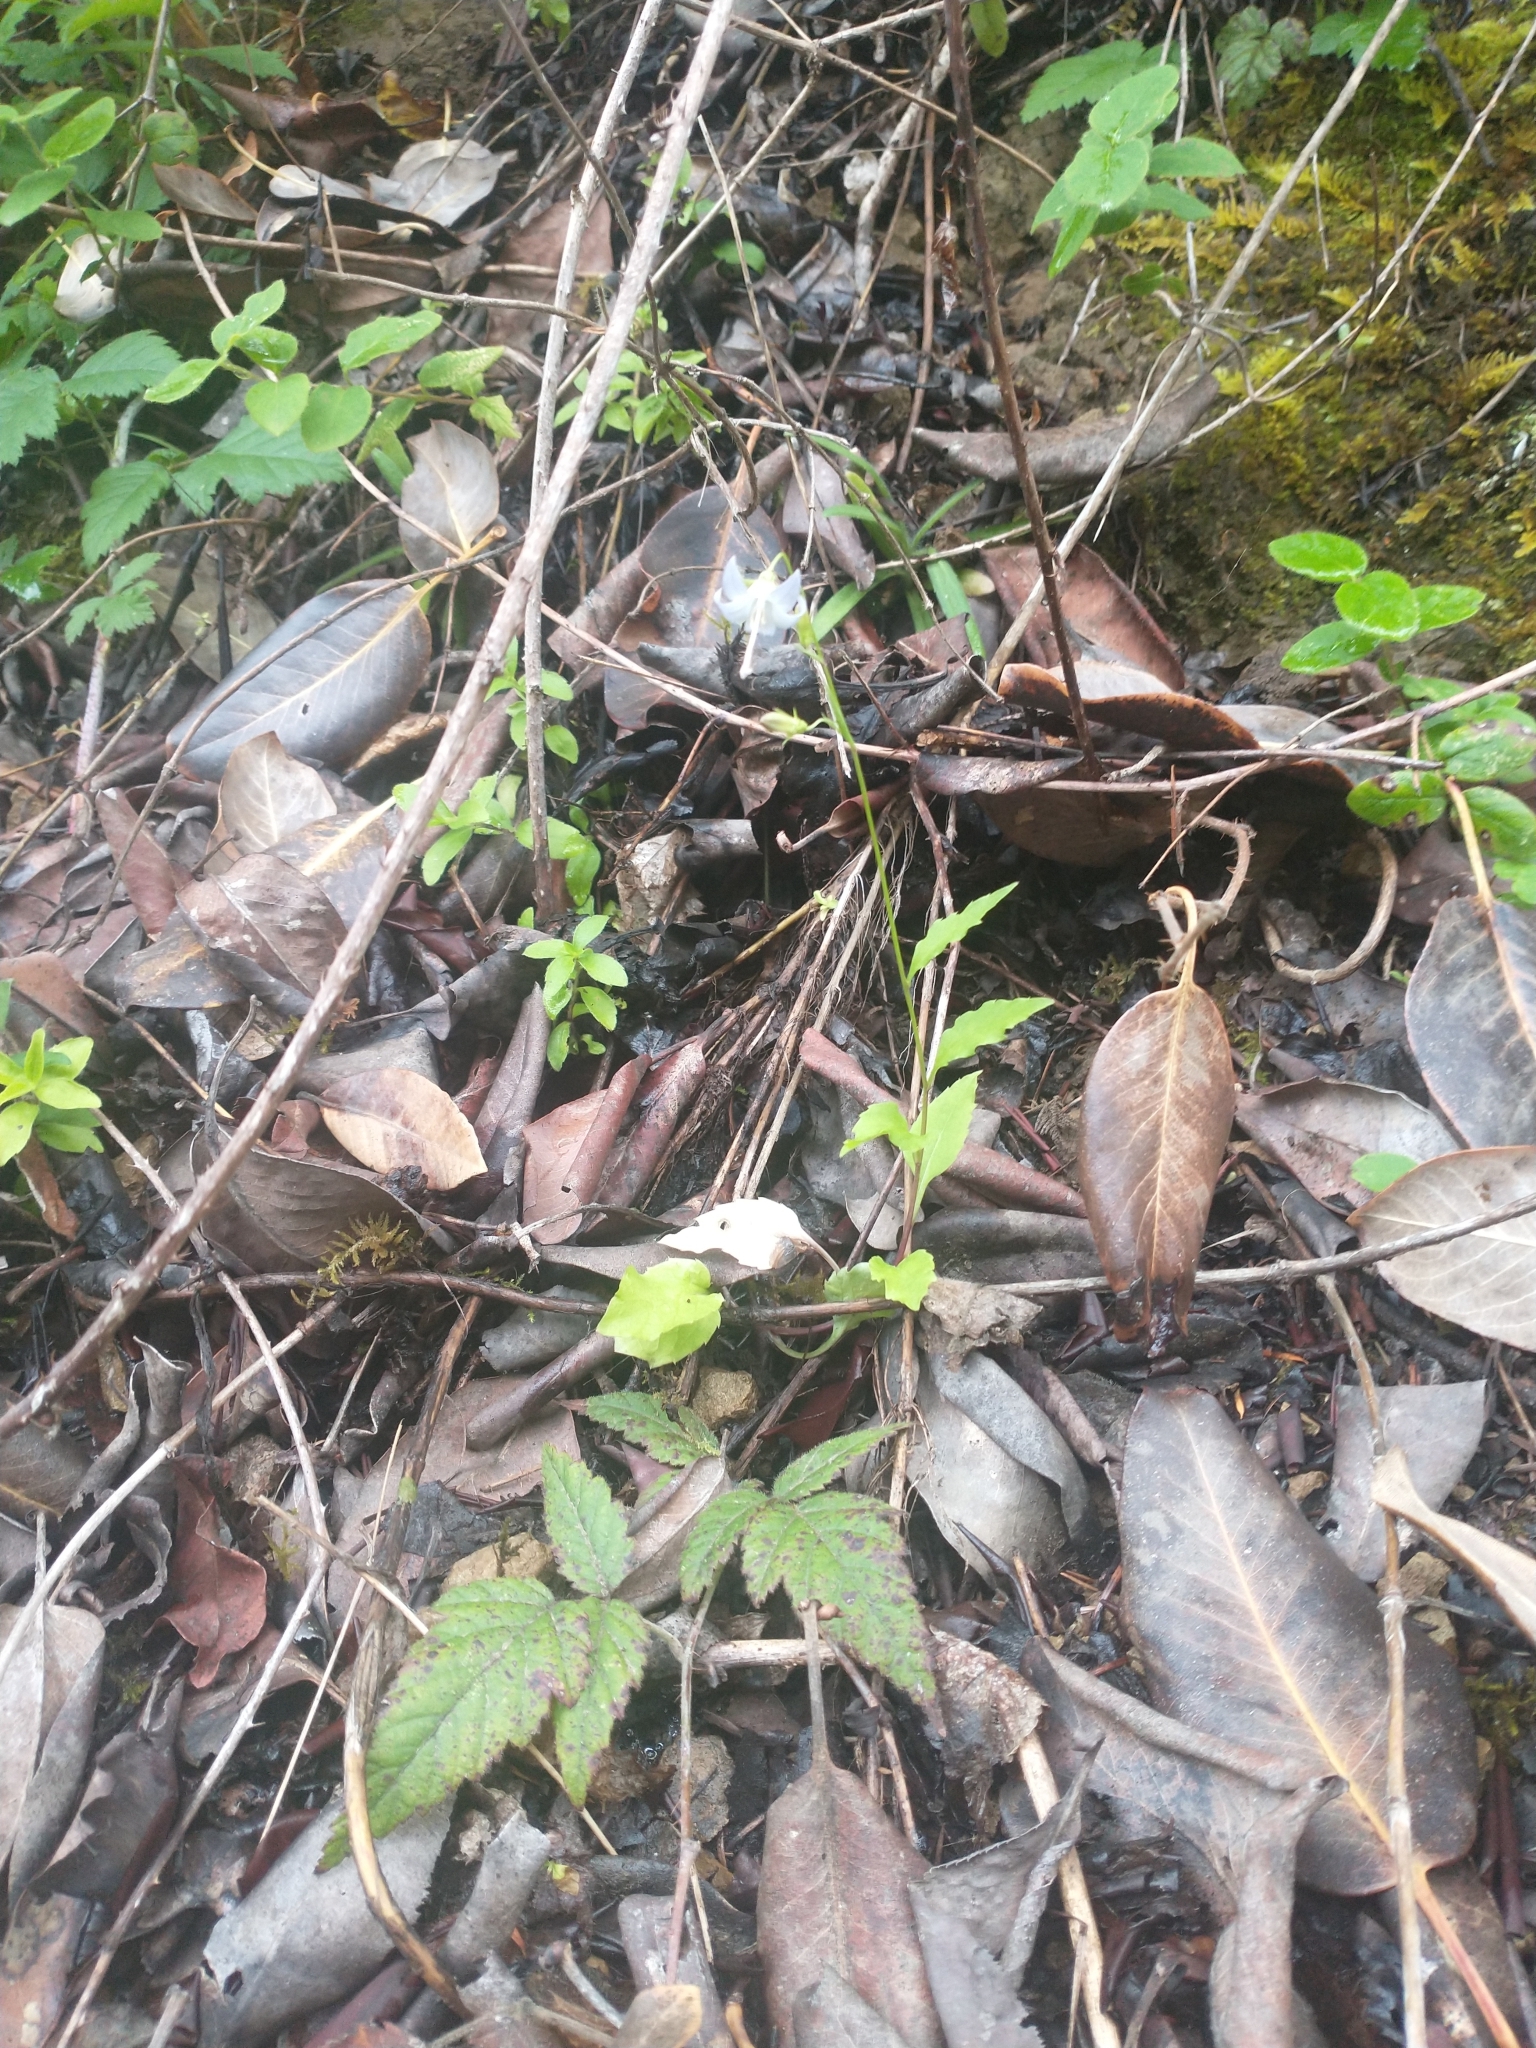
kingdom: Plantae
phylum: Tracheophyta
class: Magnoliopsida
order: Asterales
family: Campanulaceae
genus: Campanula
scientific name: Campanula scouleri
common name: Scouler's harebell
